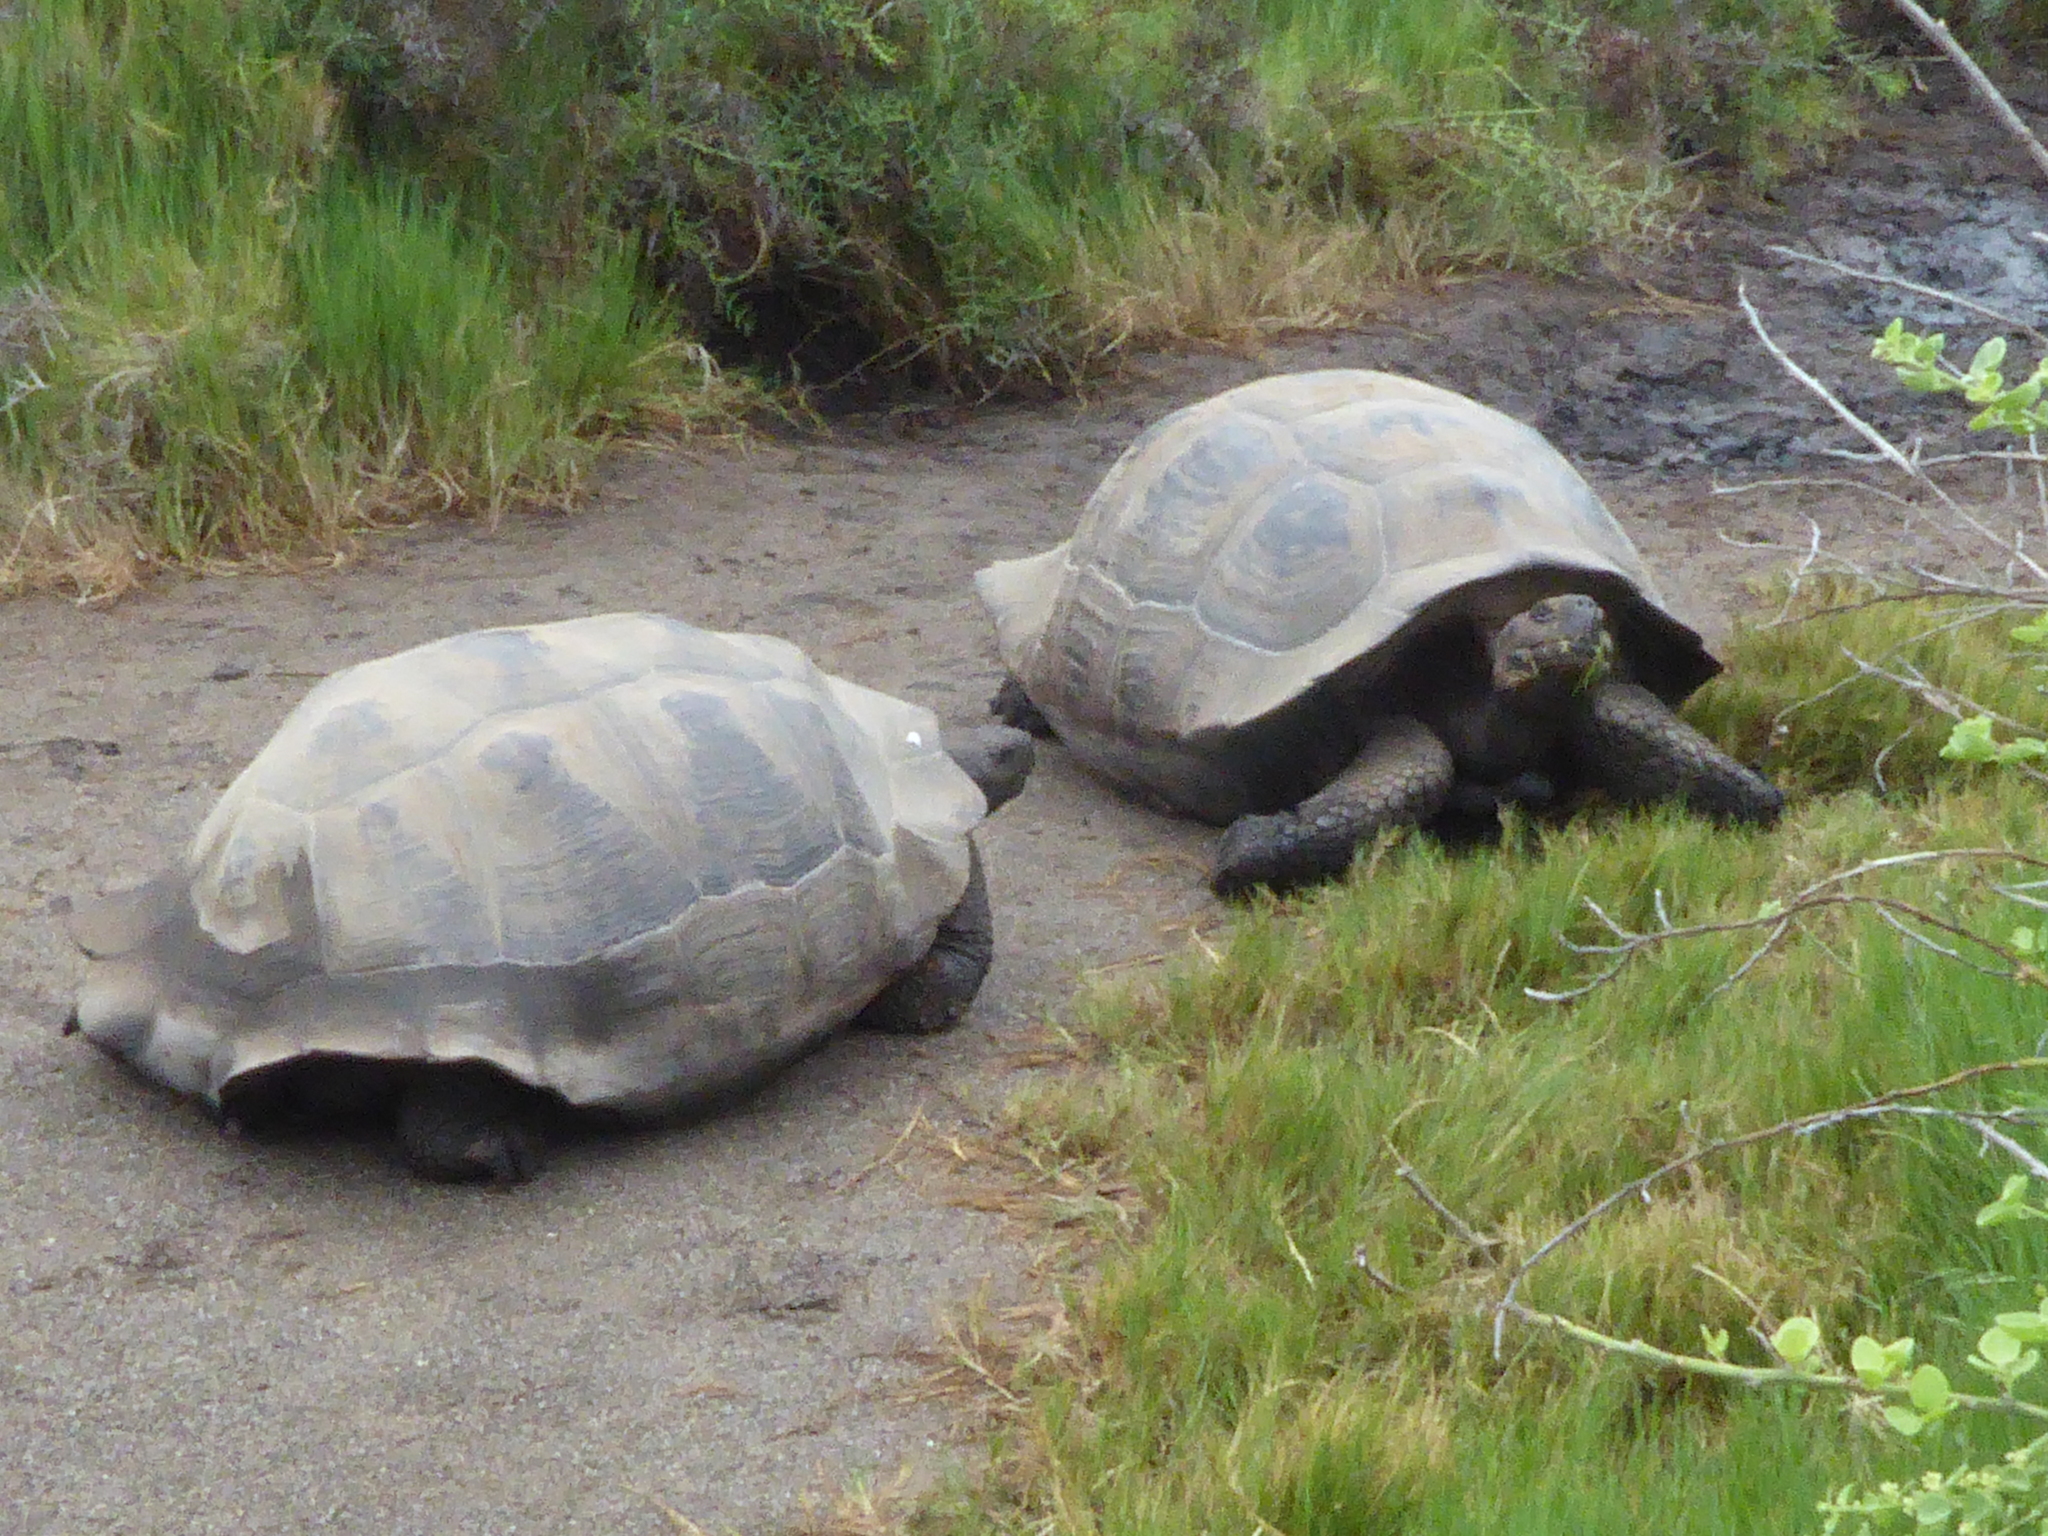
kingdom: Animalia
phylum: Chordata
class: Testudines
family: Testudinidae
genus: Chelonoidis
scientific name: Chelonoidis niger
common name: Charles island giant tortoise
